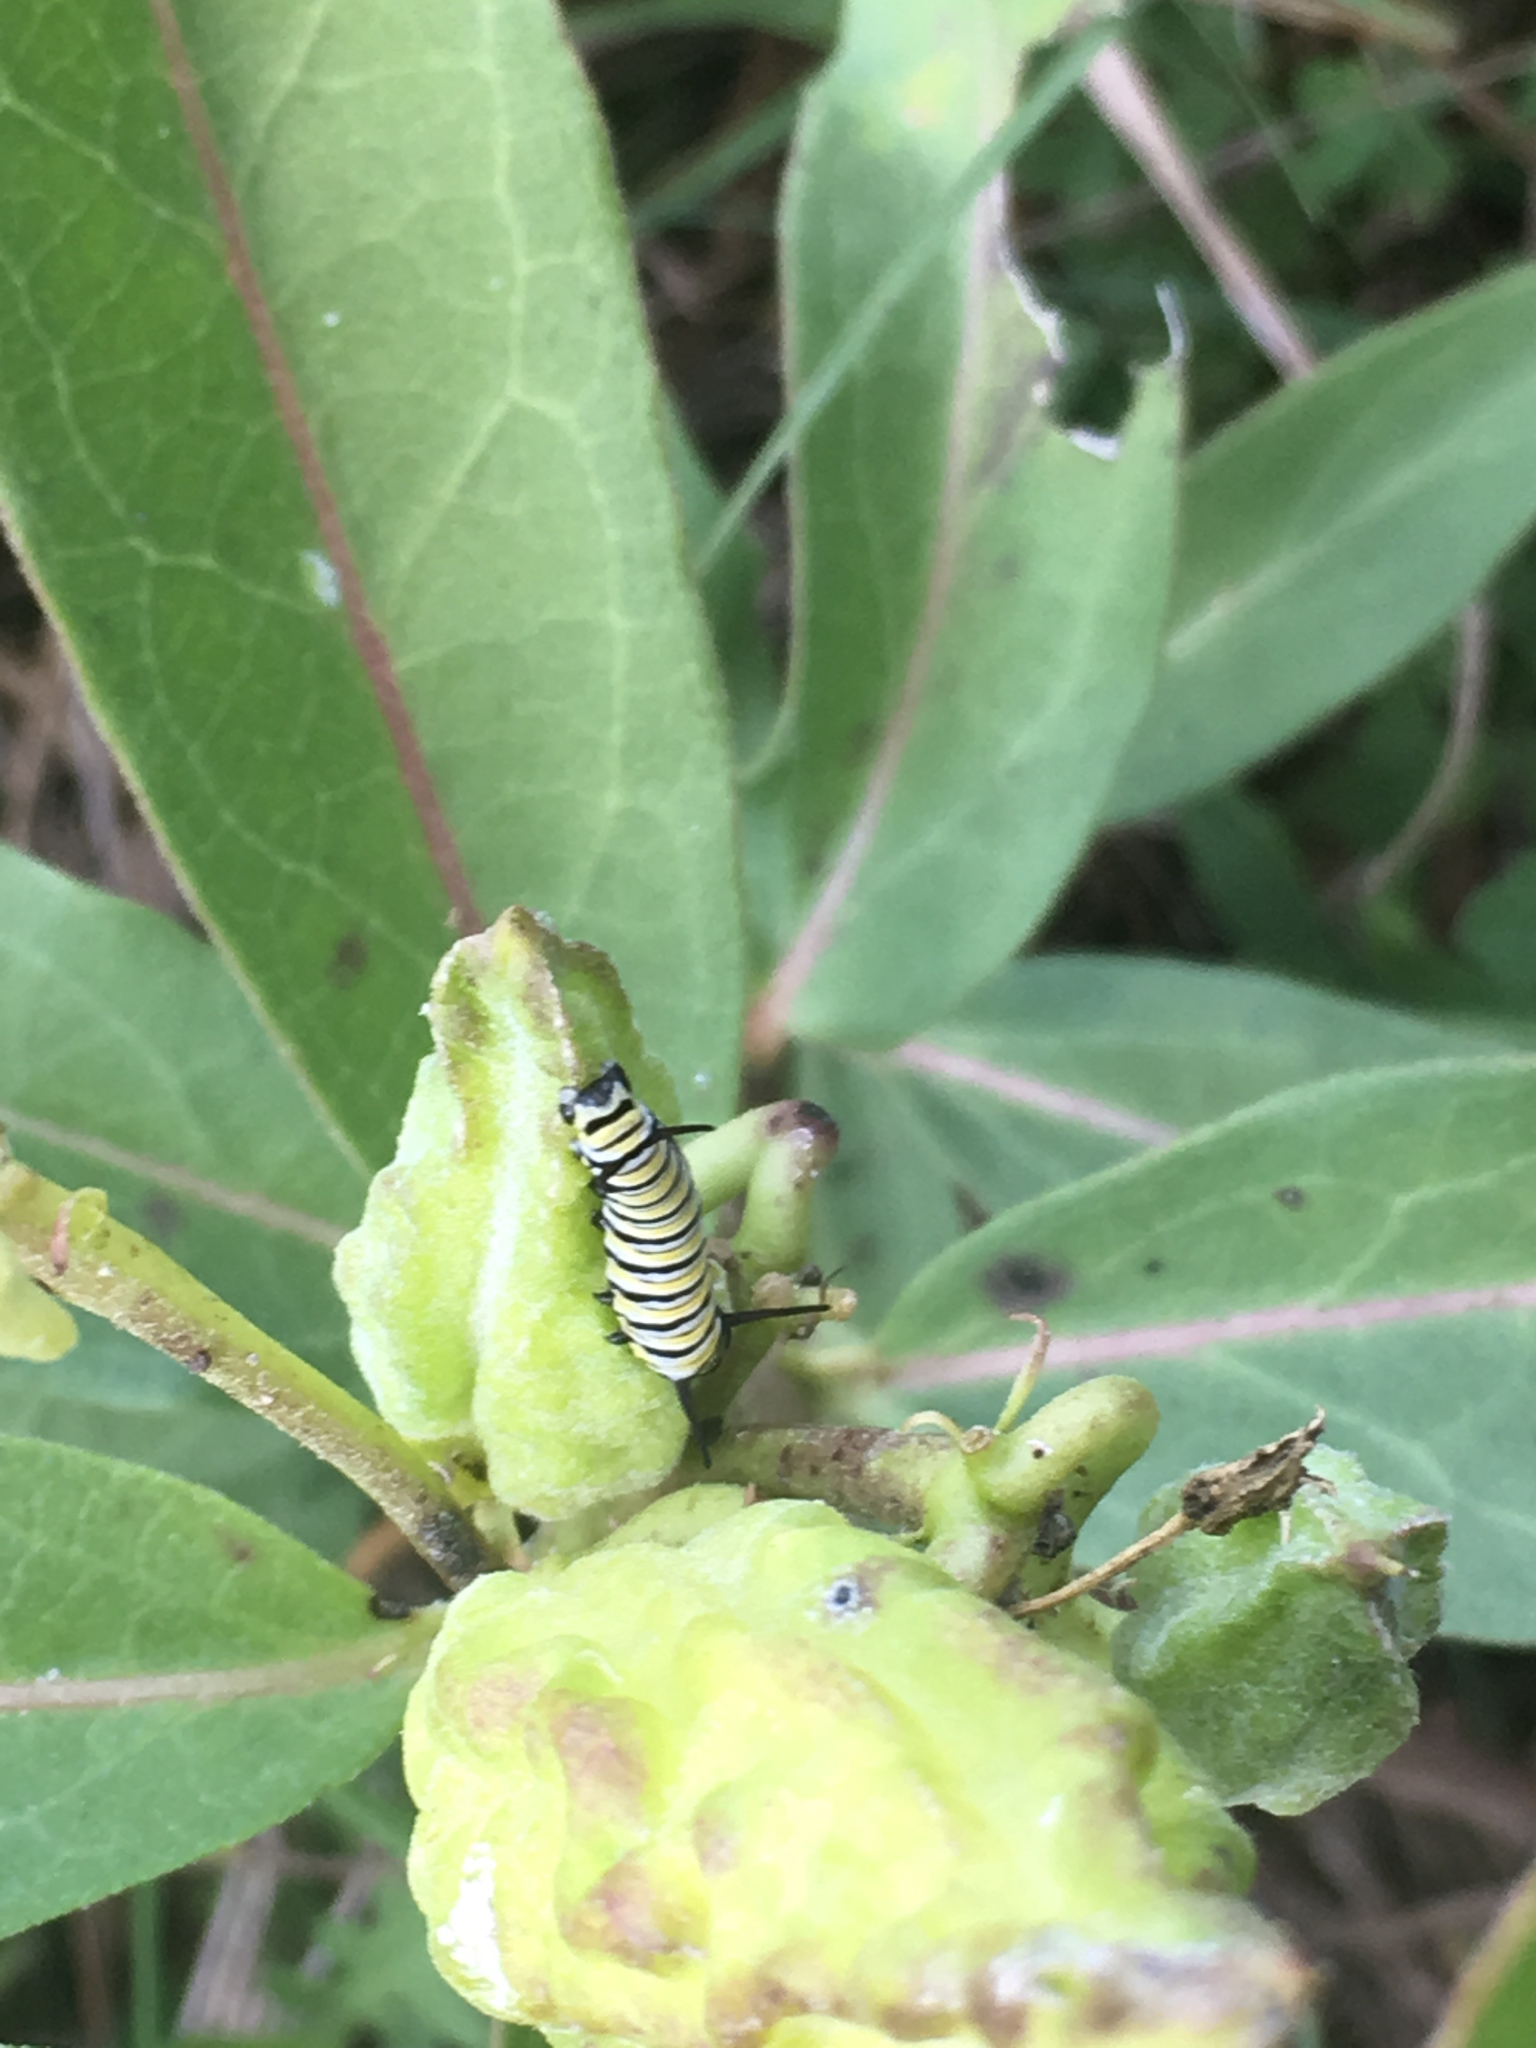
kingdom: Animalia
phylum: Arthropoda
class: Insecta
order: Lepidoptera
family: Nymphalidae
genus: Danaus
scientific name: Danaus plexippus
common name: Monarch
